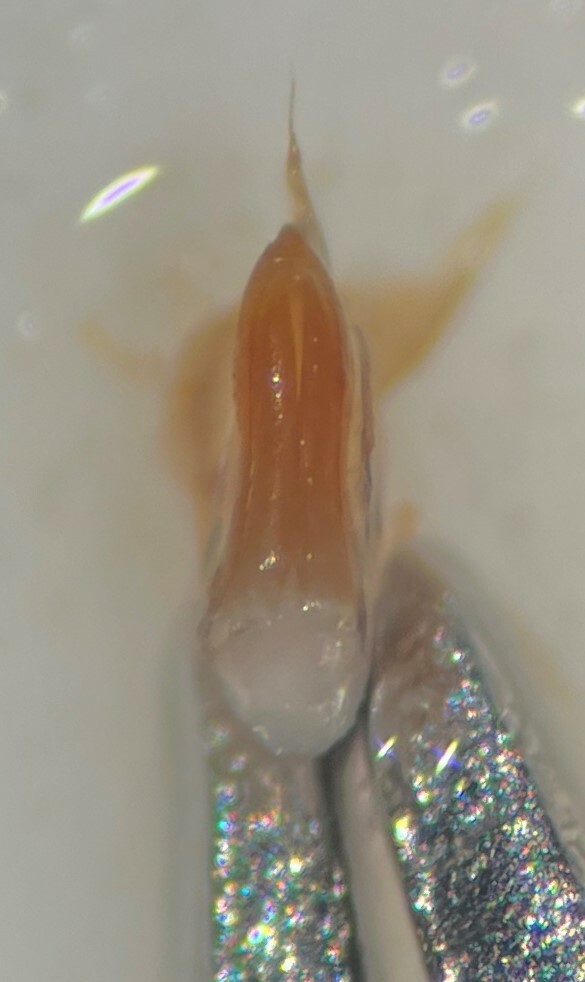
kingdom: Animalia
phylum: Arthropoda
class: Insecta
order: Coleoptera
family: Dytiscidae
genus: Hydroporus
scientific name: Hydroporus niger
